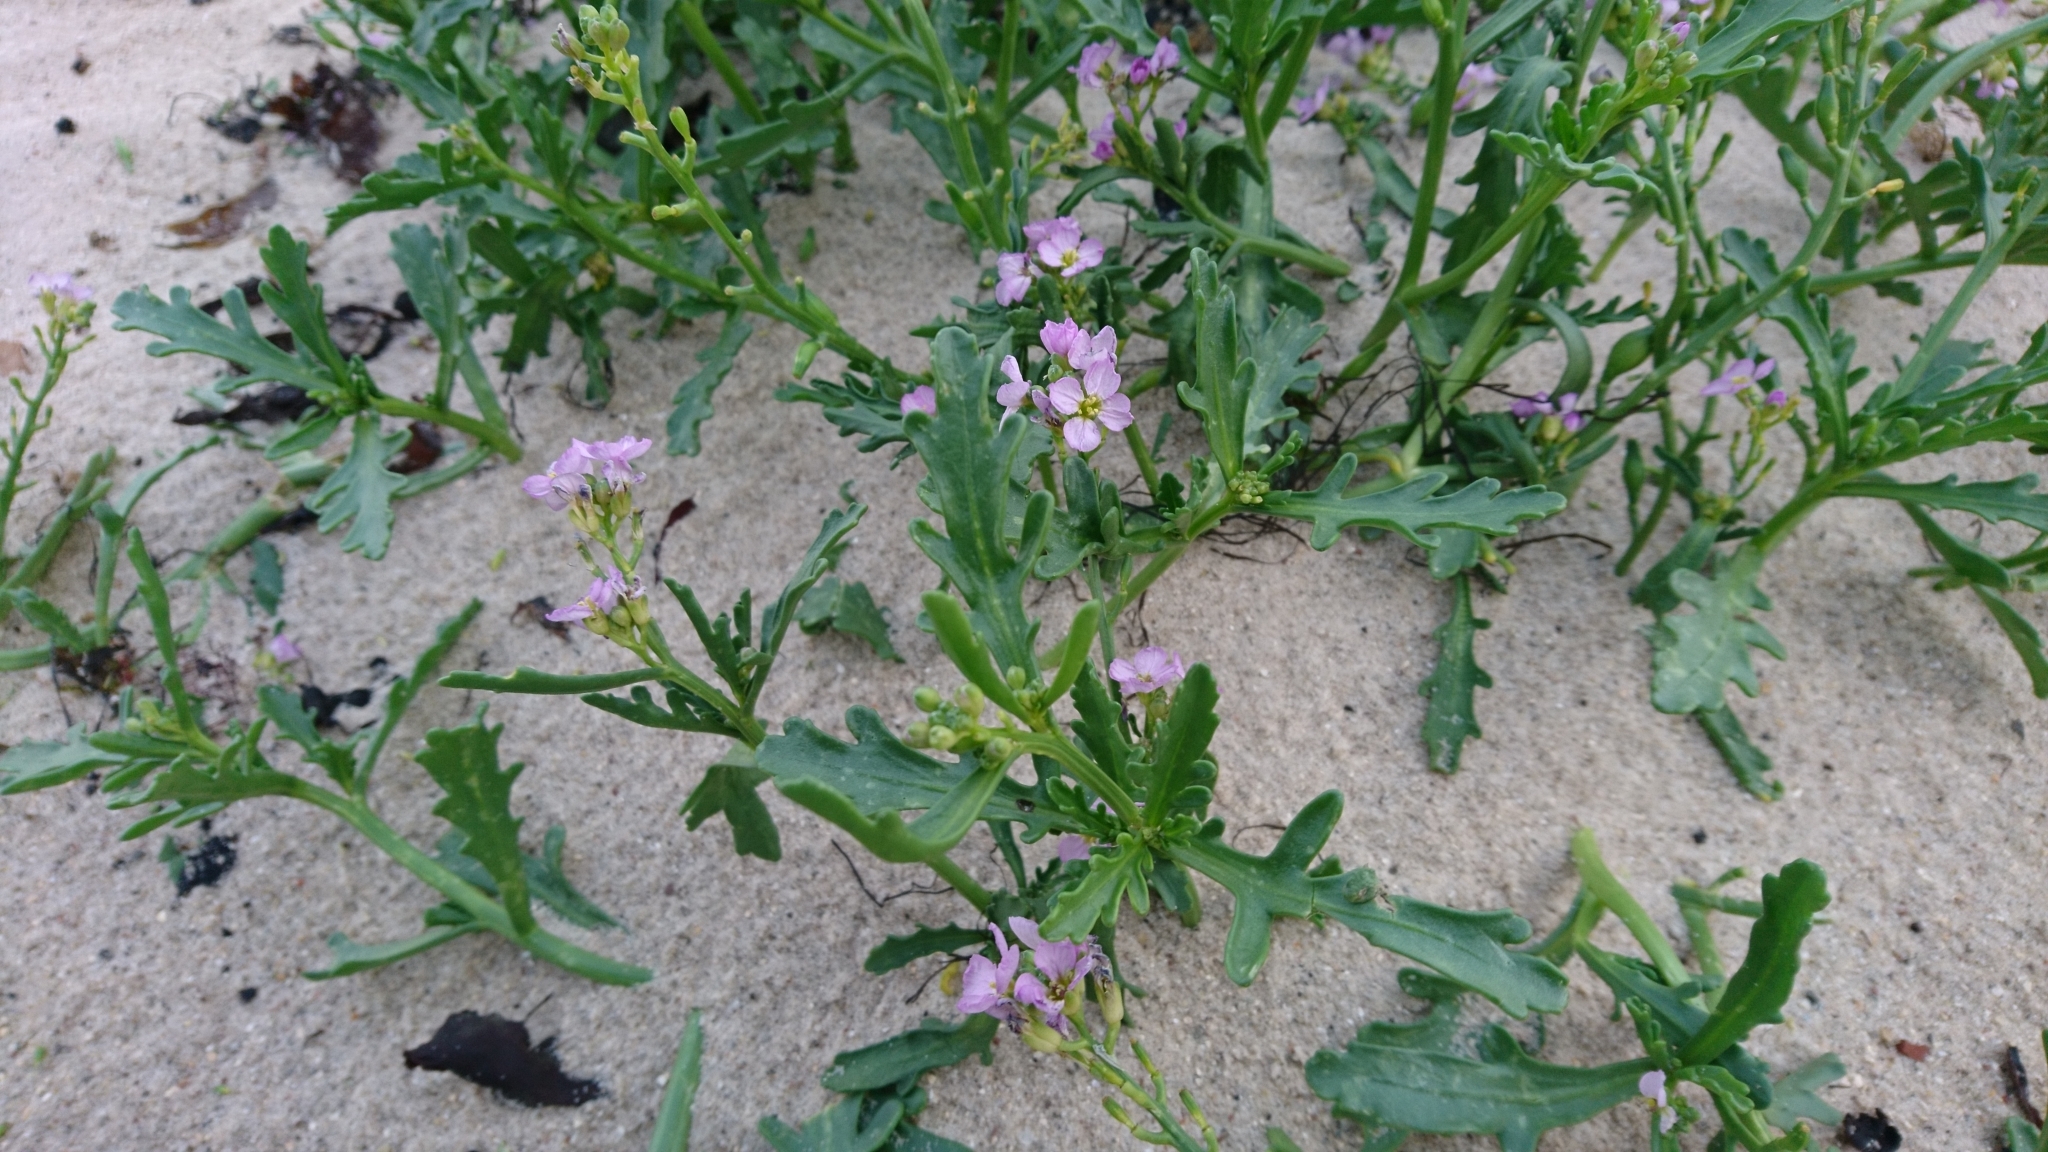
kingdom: Plantae
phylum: Tracheophyta
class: Magnoliopsida
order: Brassicales
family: Brassicaceae
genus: Cakile
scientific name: Cakile maritima
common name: Sea rocket
